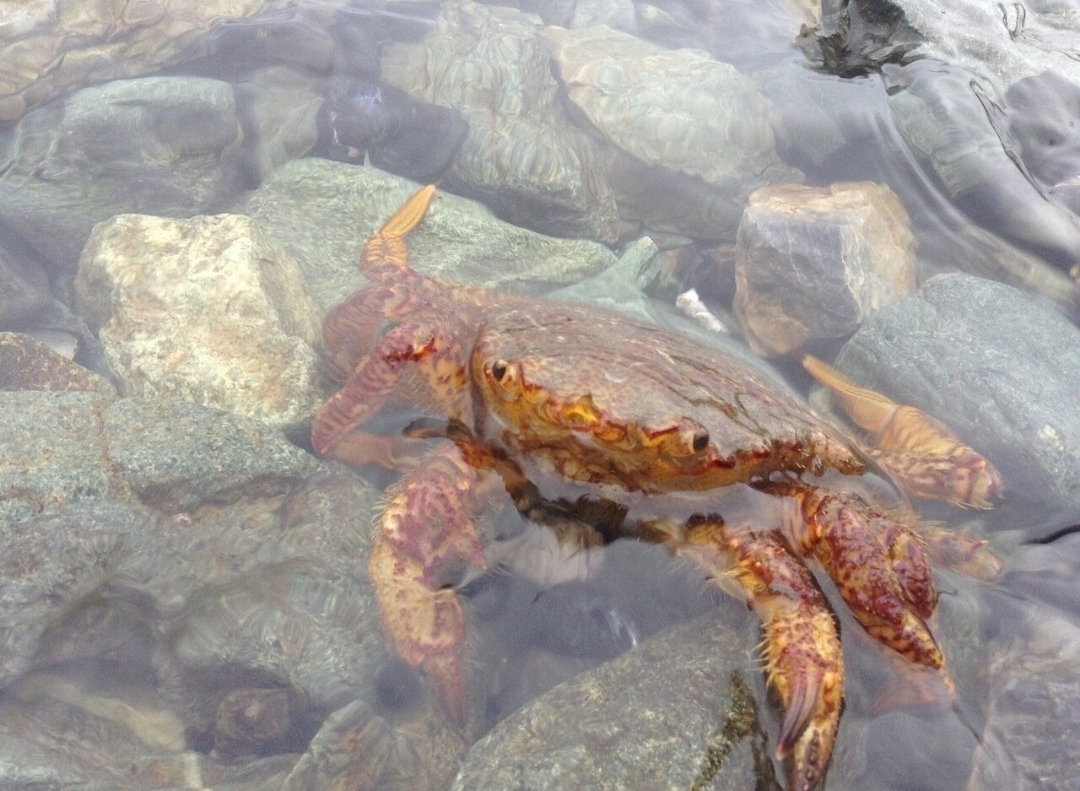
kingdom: Animalia
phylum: Arthropoda
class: Malacostraca
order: Decapoda
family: Cheiragonidae
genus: Telmessus
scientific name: Telmessus cheiragonus
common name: Helmet crab
